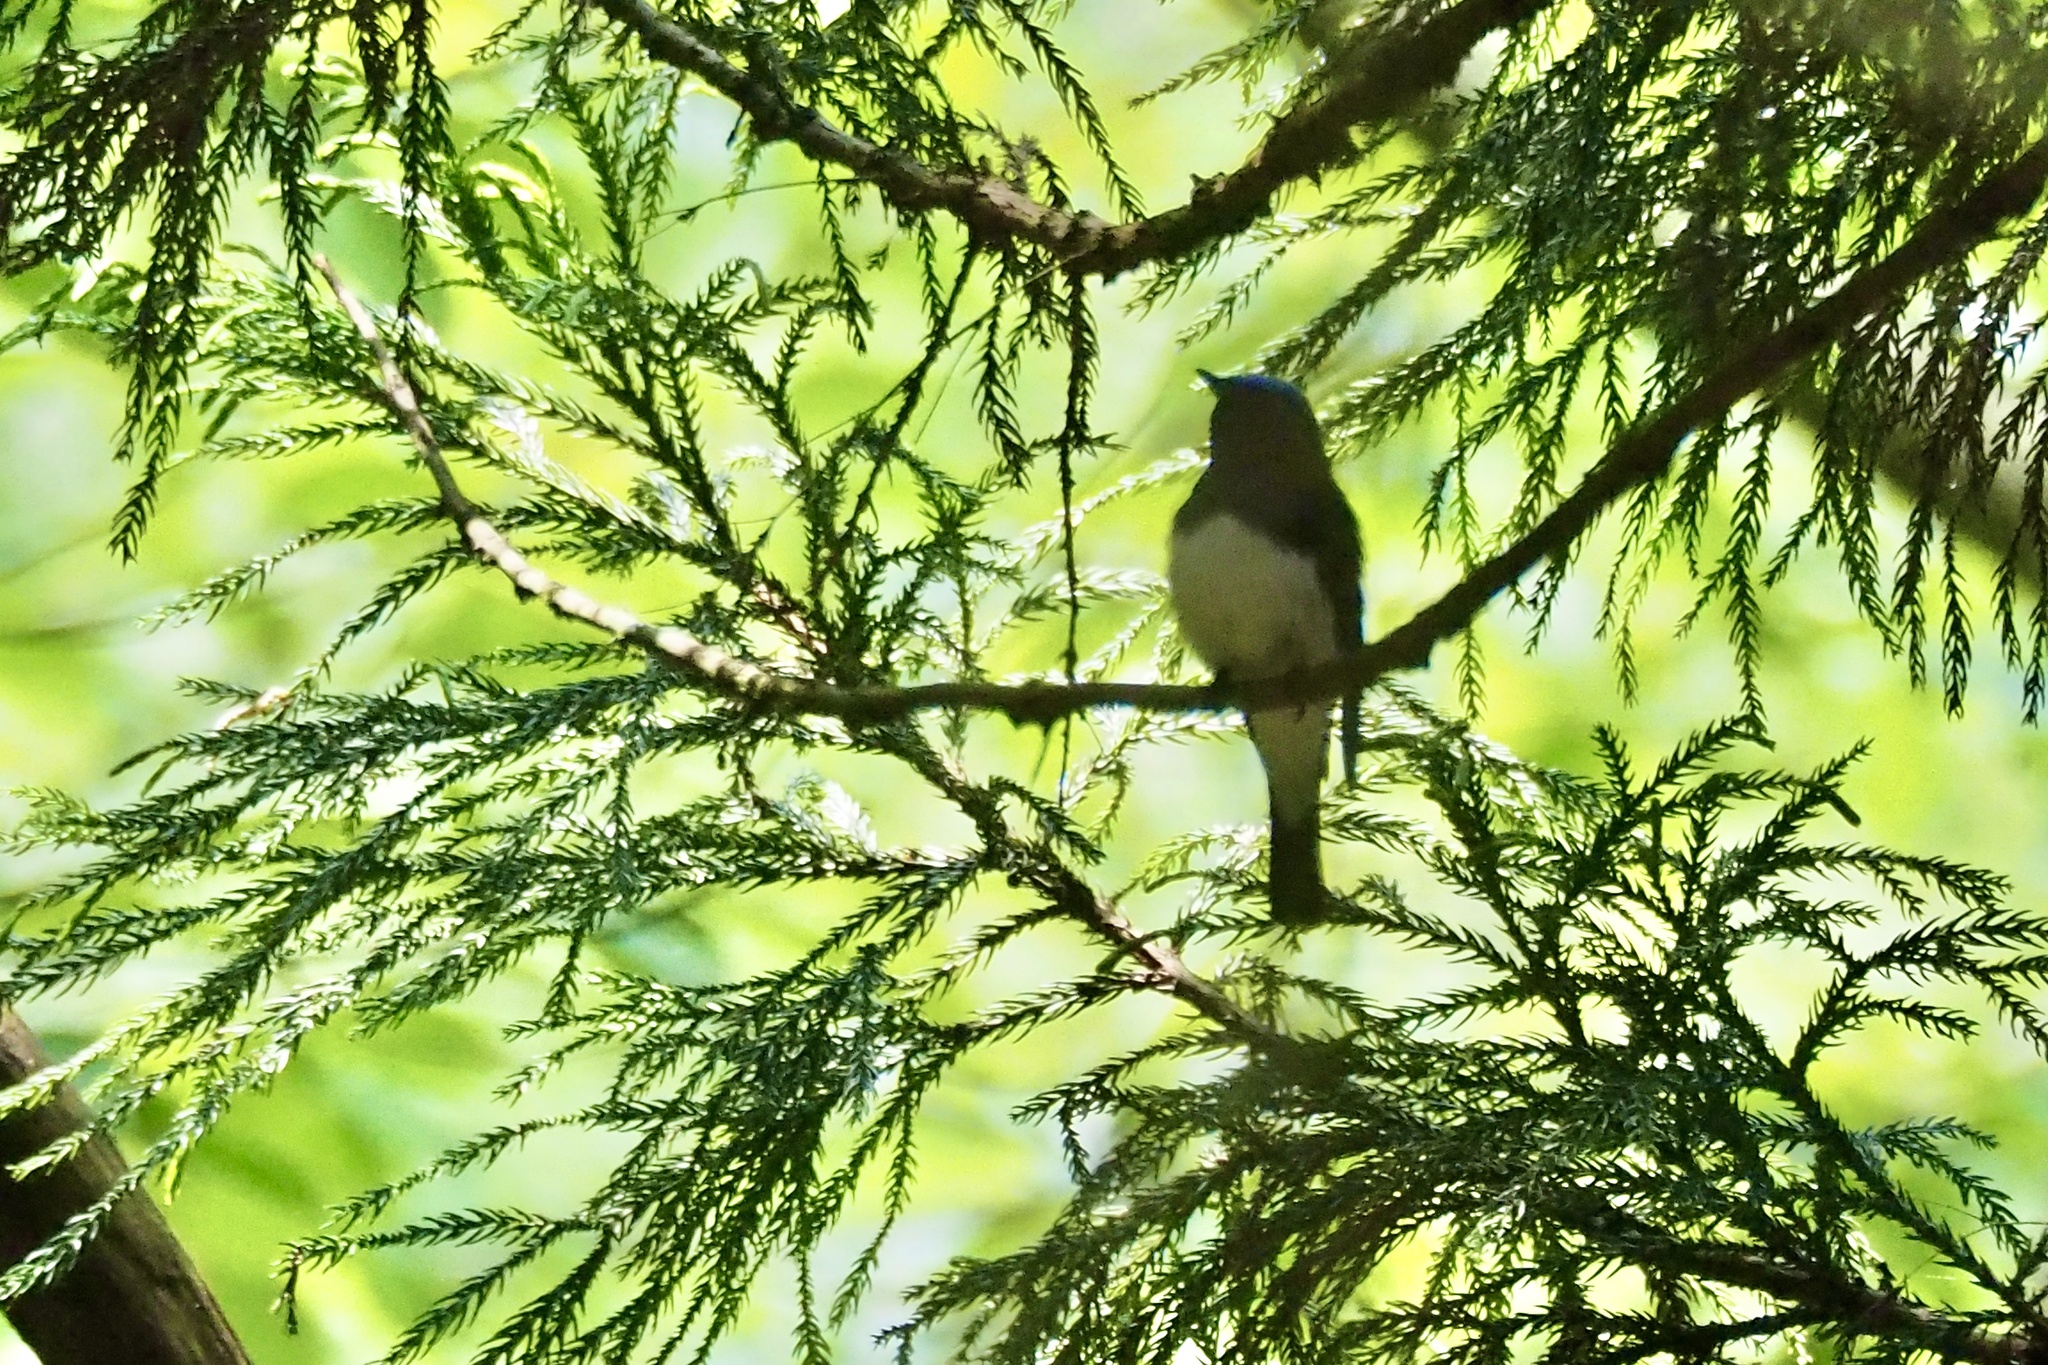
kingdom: Animalia
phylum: Chordata
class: Aves
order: Passeriformes
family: Muscicapidae
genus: Cyanoptila
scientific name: Cyanoptila cyanomelana
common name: Blue-and-white flycatcher
